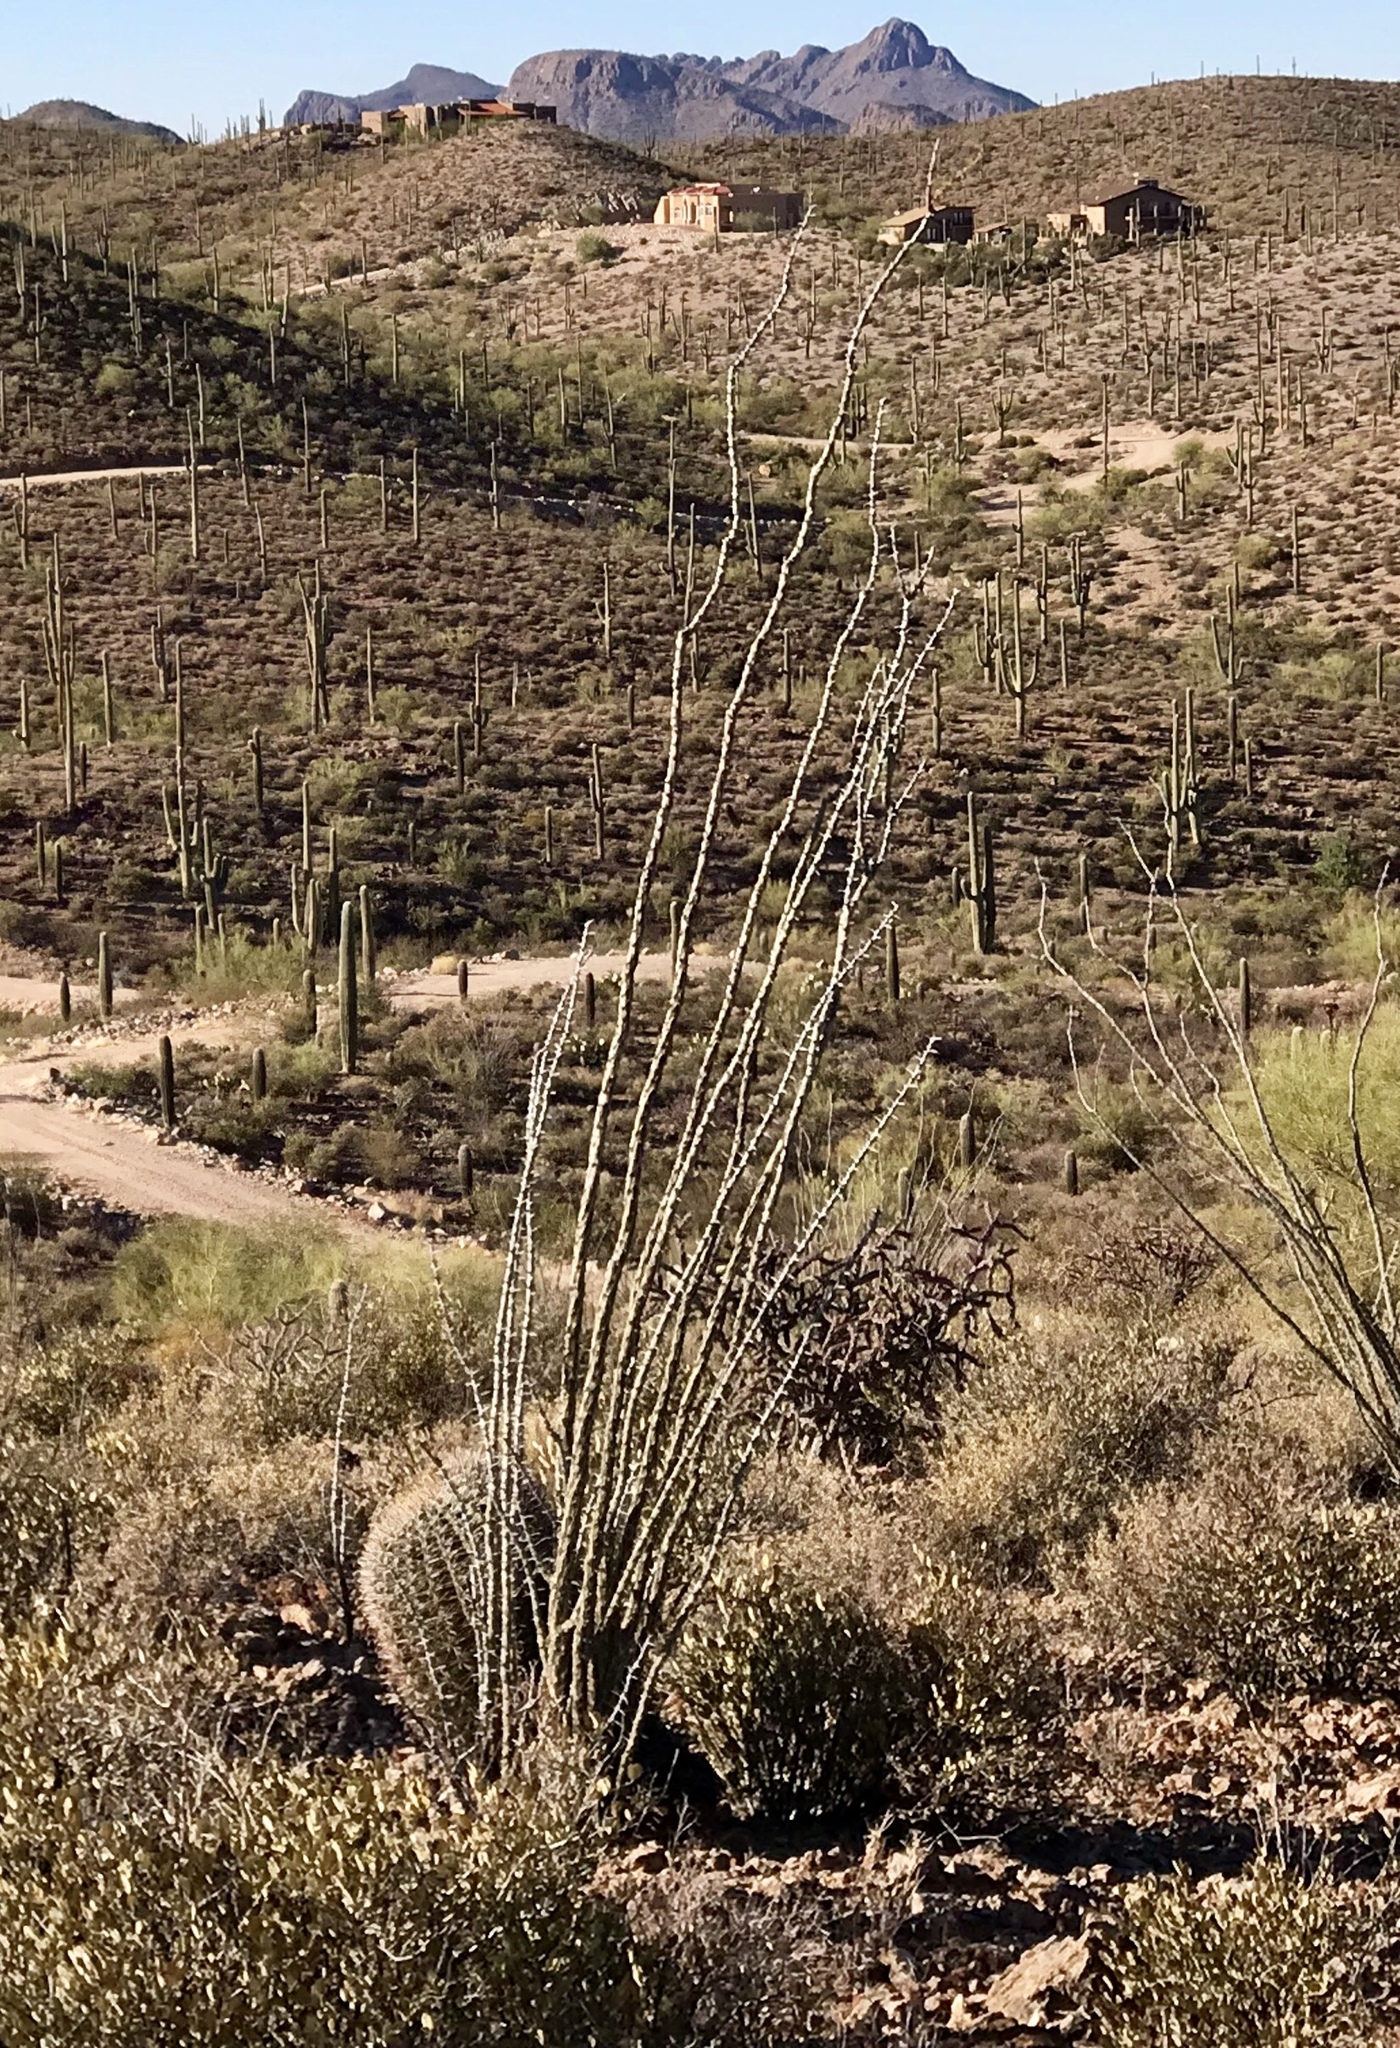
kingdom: Plantae
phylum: Tracheophyta
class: Magnoliopsida
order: Ericales
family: Fouquieriaceae
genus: Fouquieria
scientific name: Fouquieria splendens
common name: Vine-cactus
